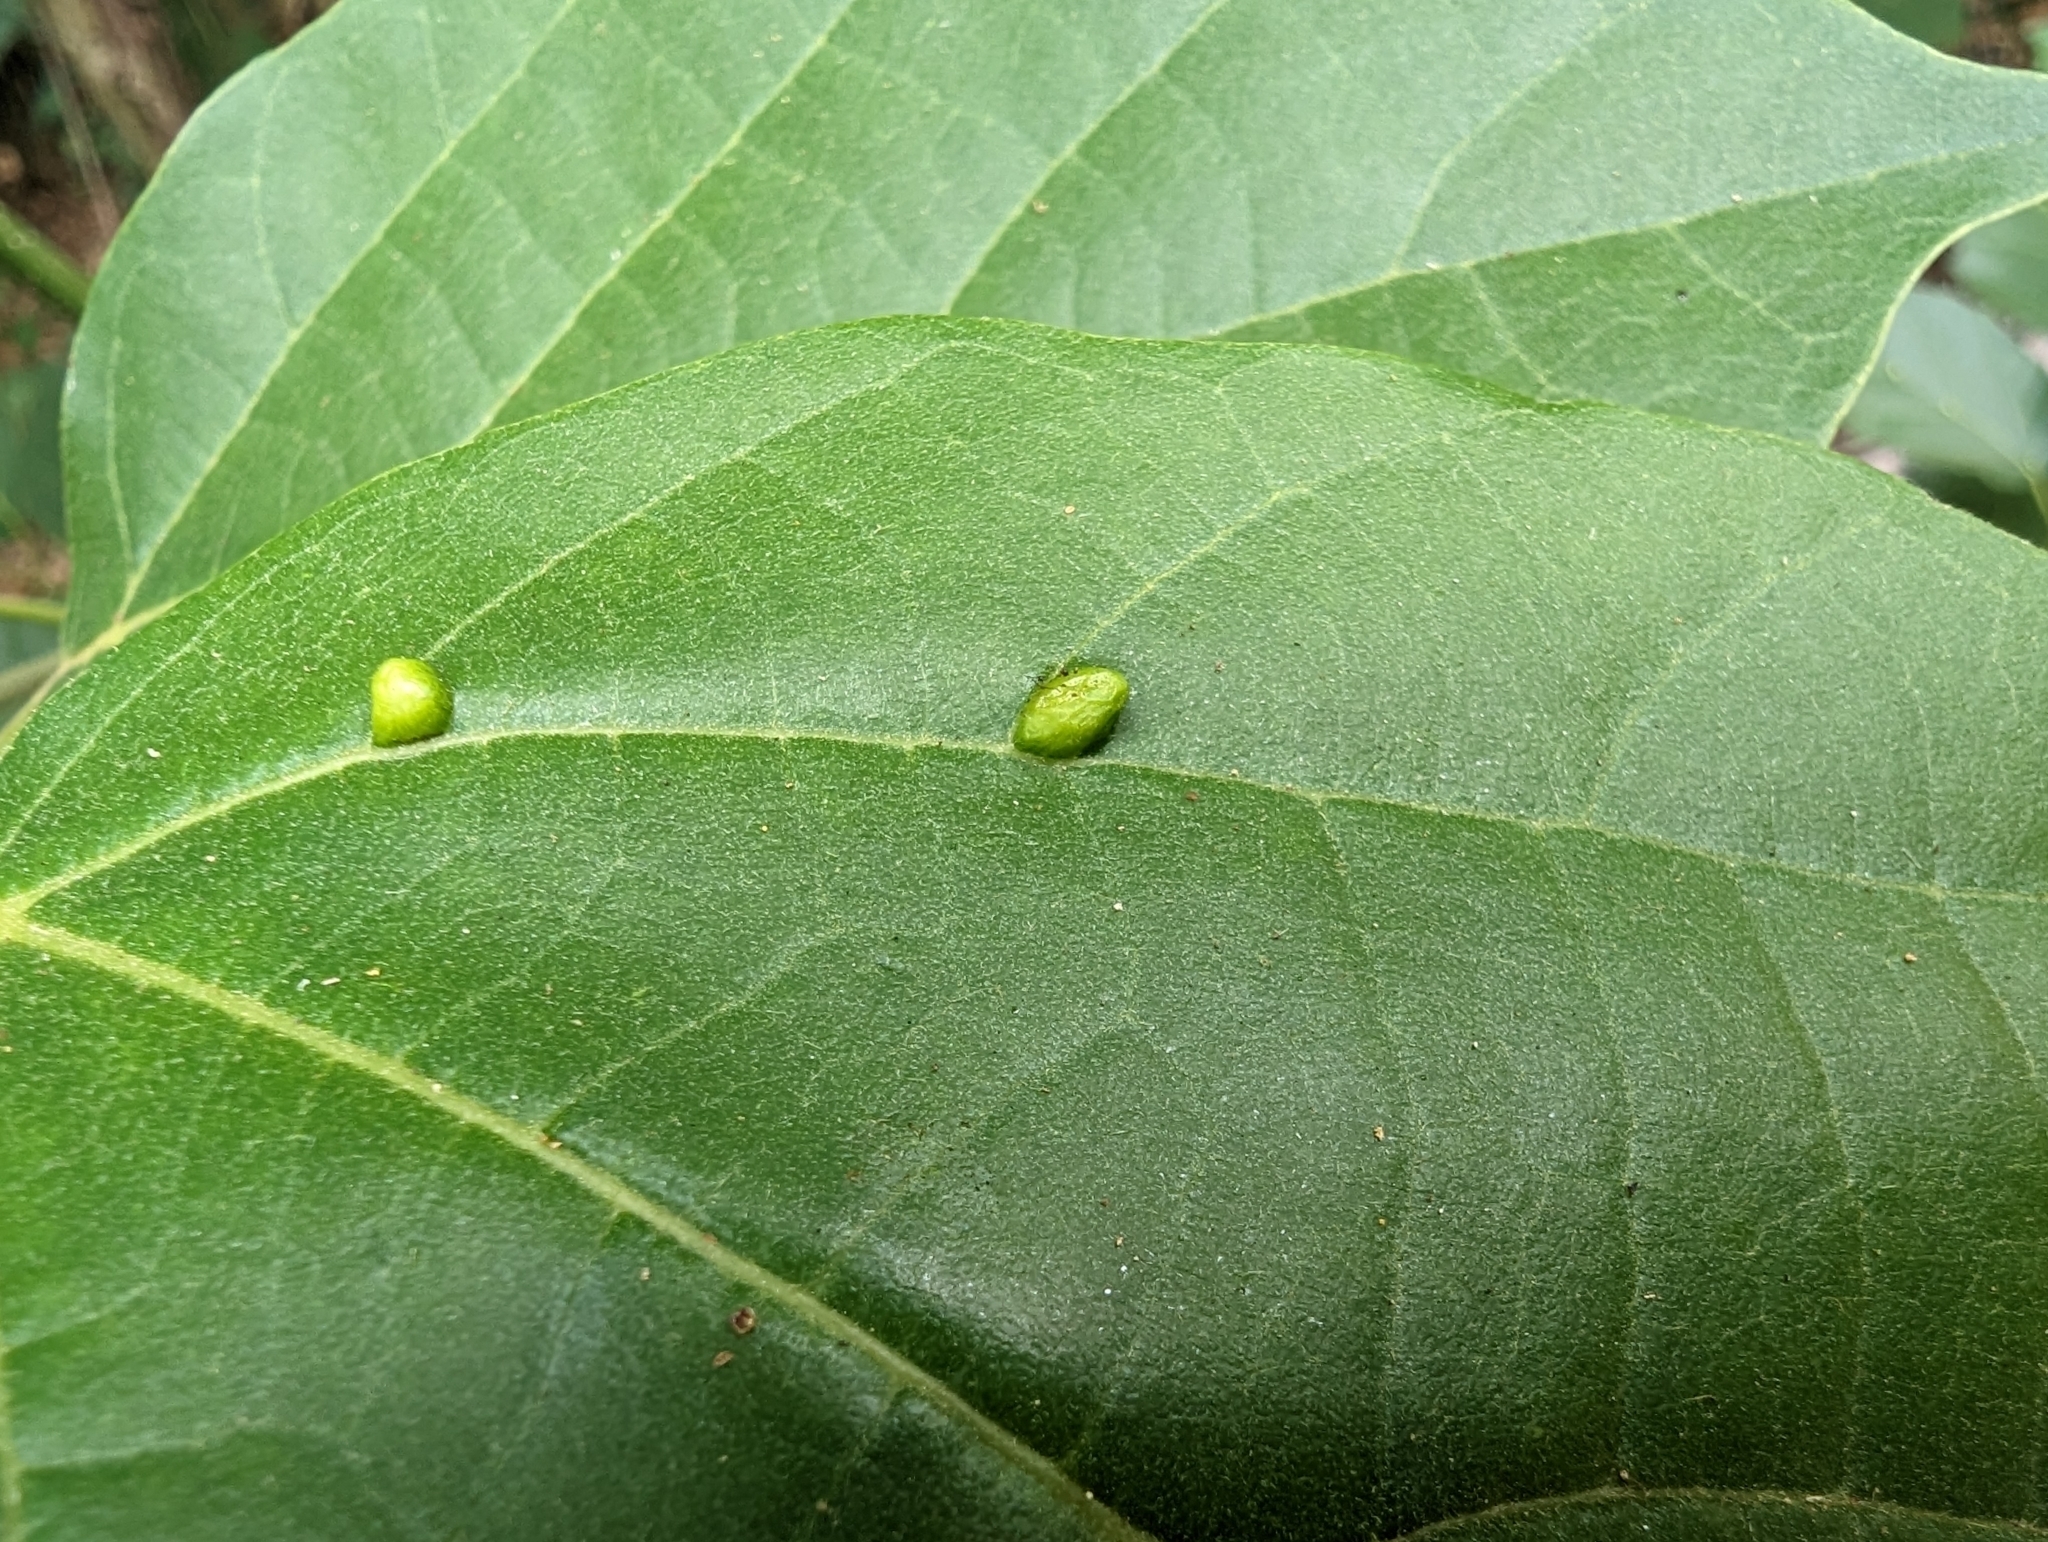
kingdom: Plantae
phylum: Tracheophyta
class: Magnoliopsida
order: Boraginales
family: Cordiaceae
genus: Cordia
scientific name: Cordia dichotoma
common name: Fragrant manjack
